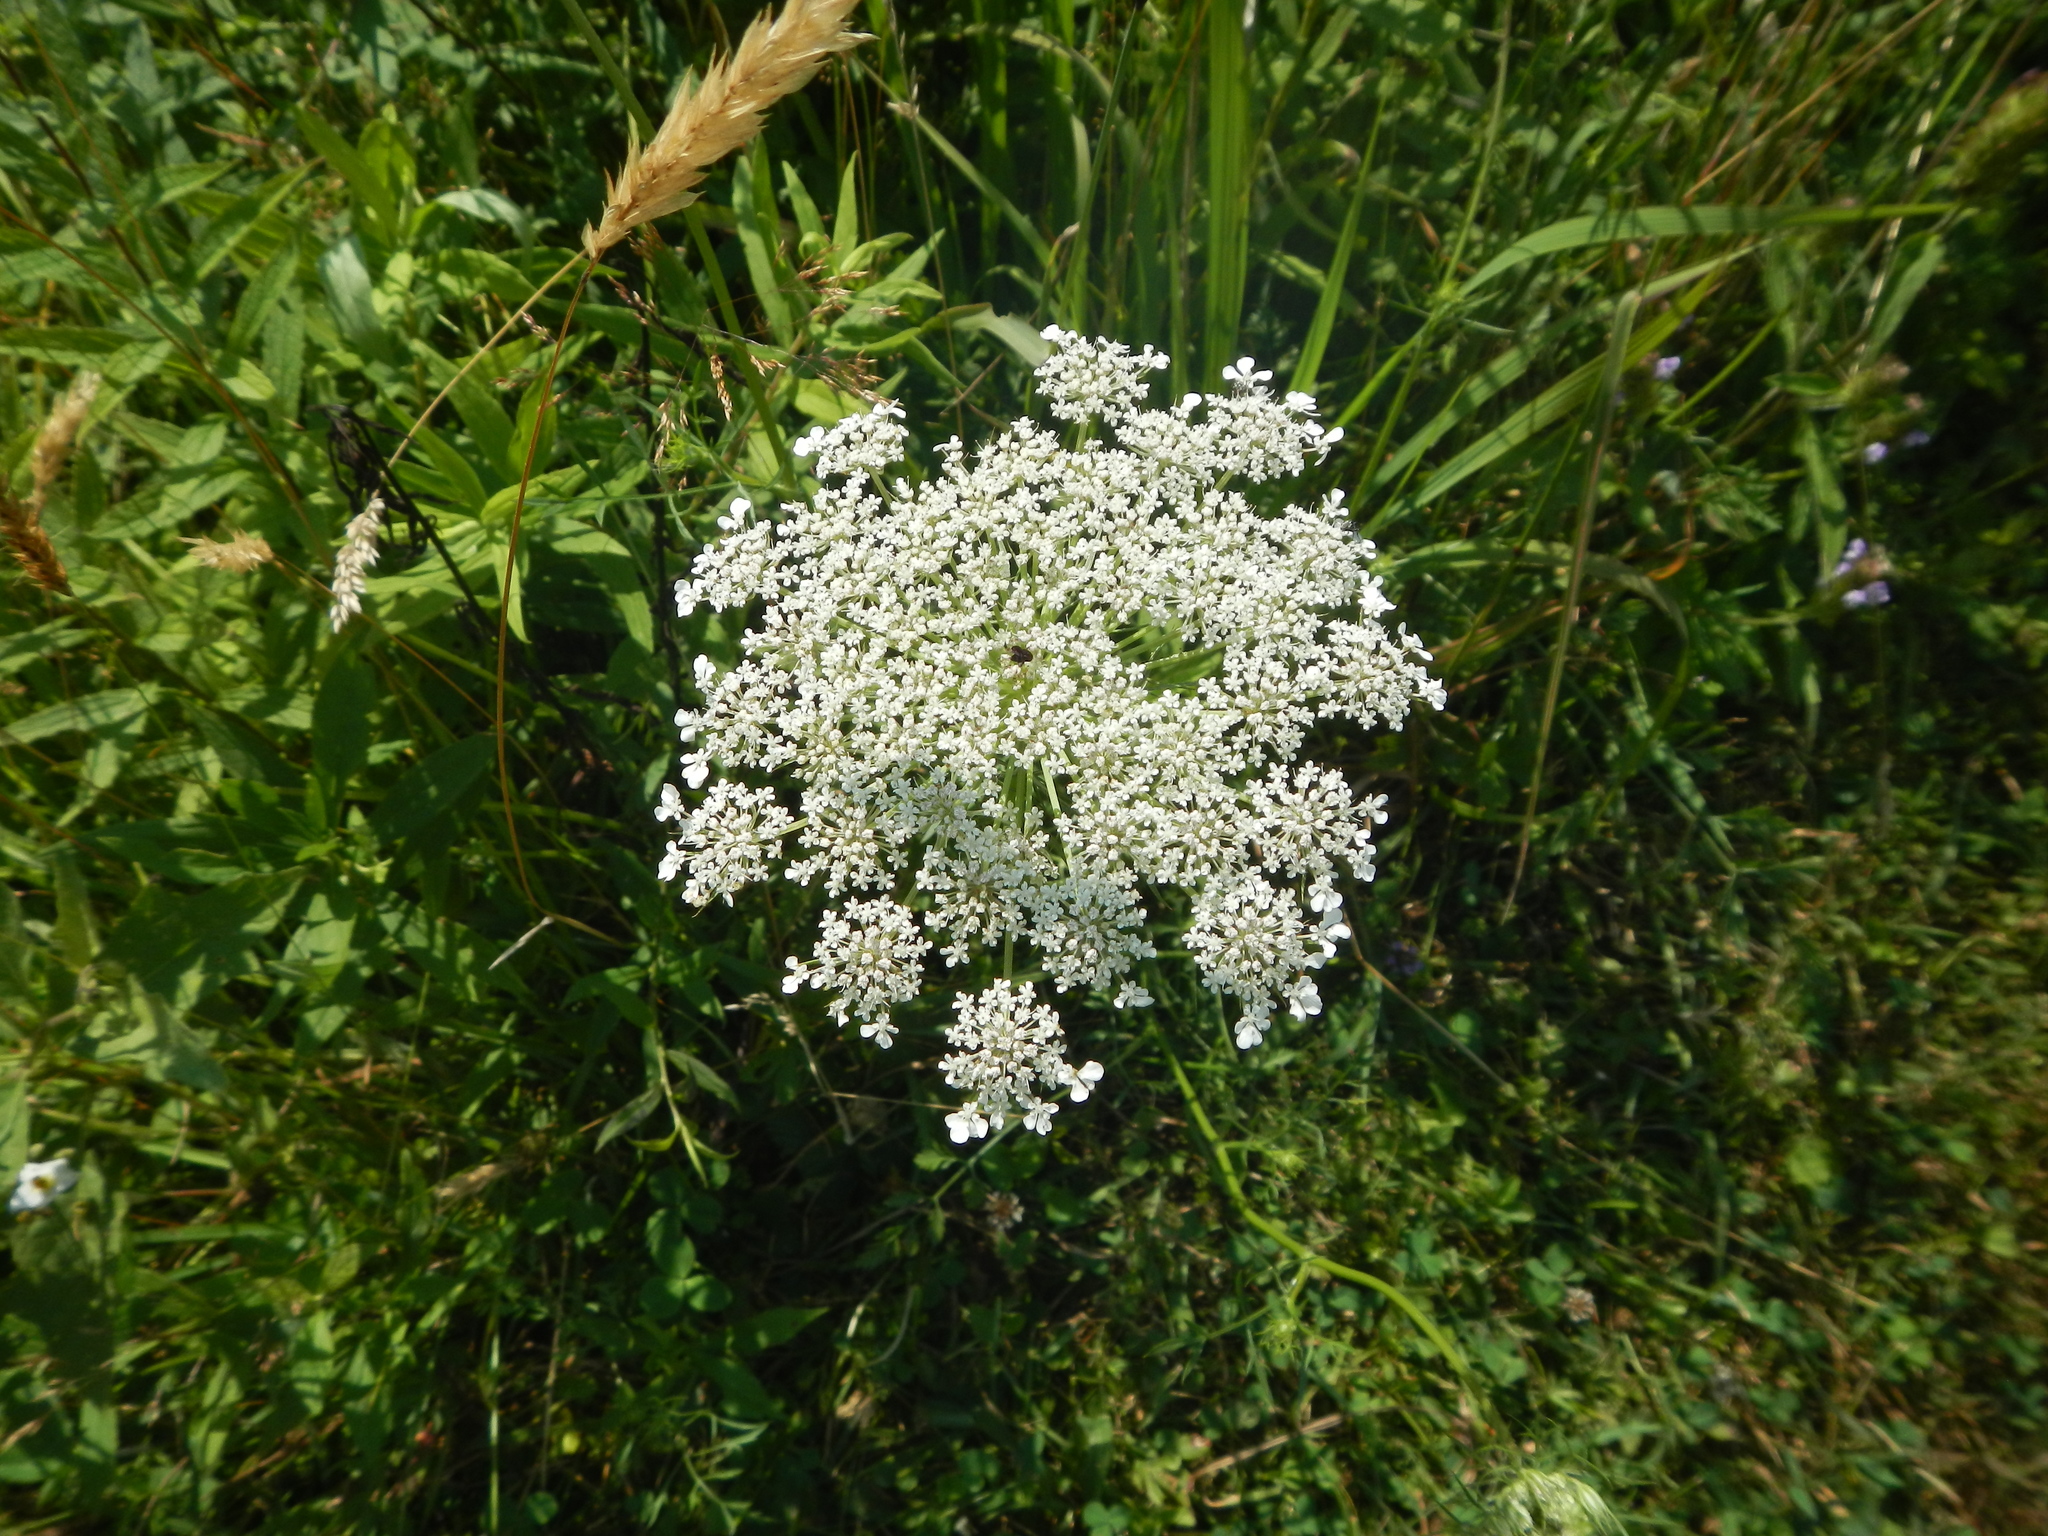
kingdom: Plantae
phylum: Tracheophyta
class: Magnoliopsida
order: Apiales
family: Apiaceae
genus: Daucus
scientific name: Daucus carota
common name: Wild carrot
